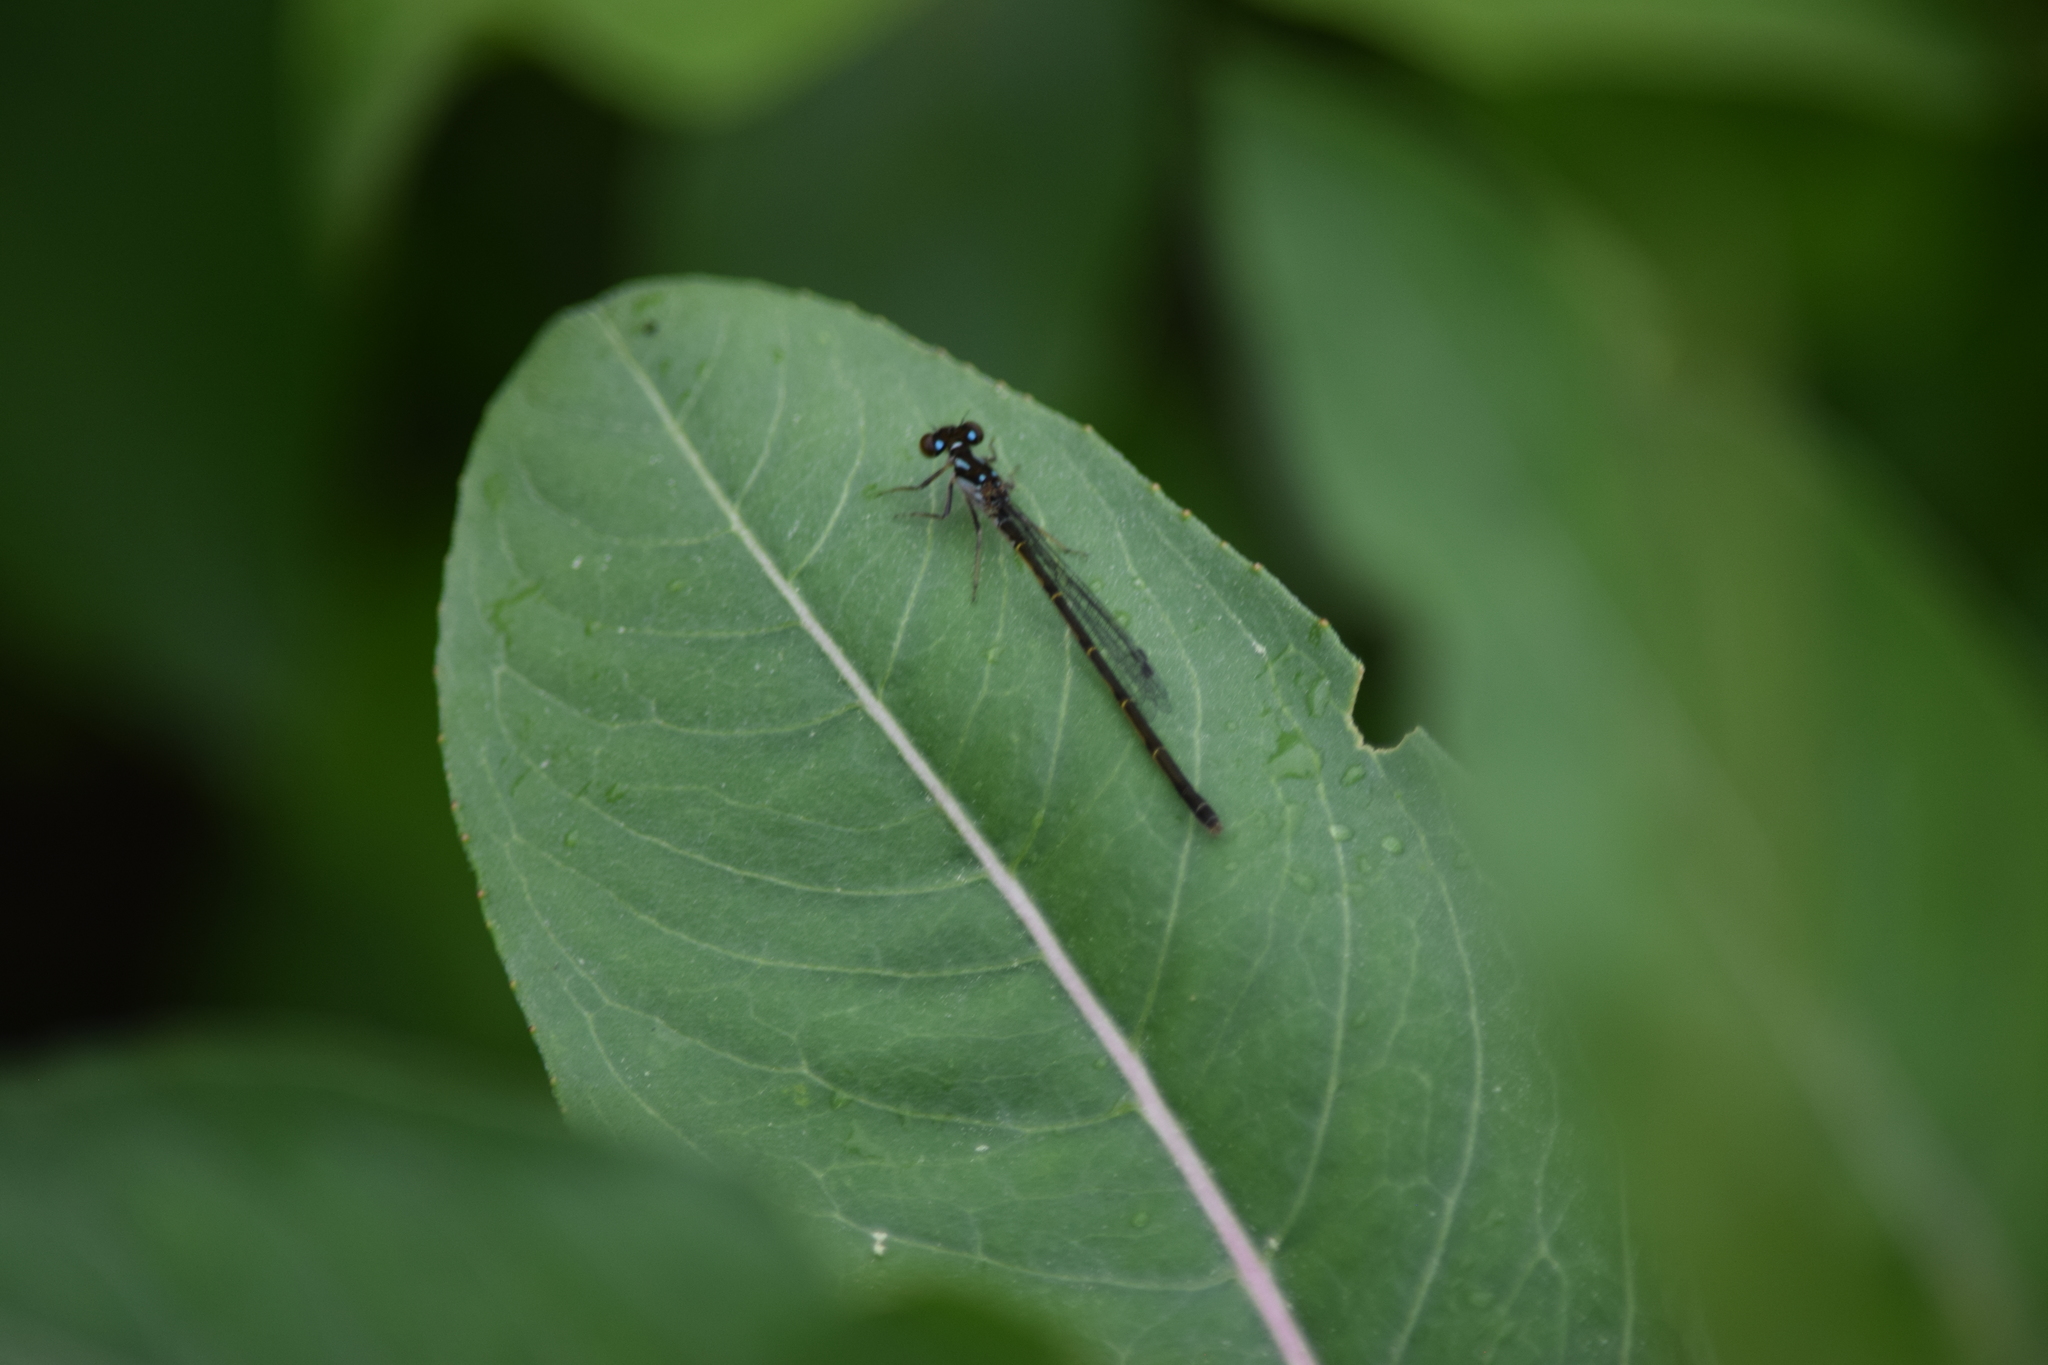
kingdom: Animalia
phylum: Arthropoda
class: Insecta
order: Odonata
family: Coenagrionidae
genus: Ischnura
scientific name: Ischnura posita
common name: Fragile forktail
